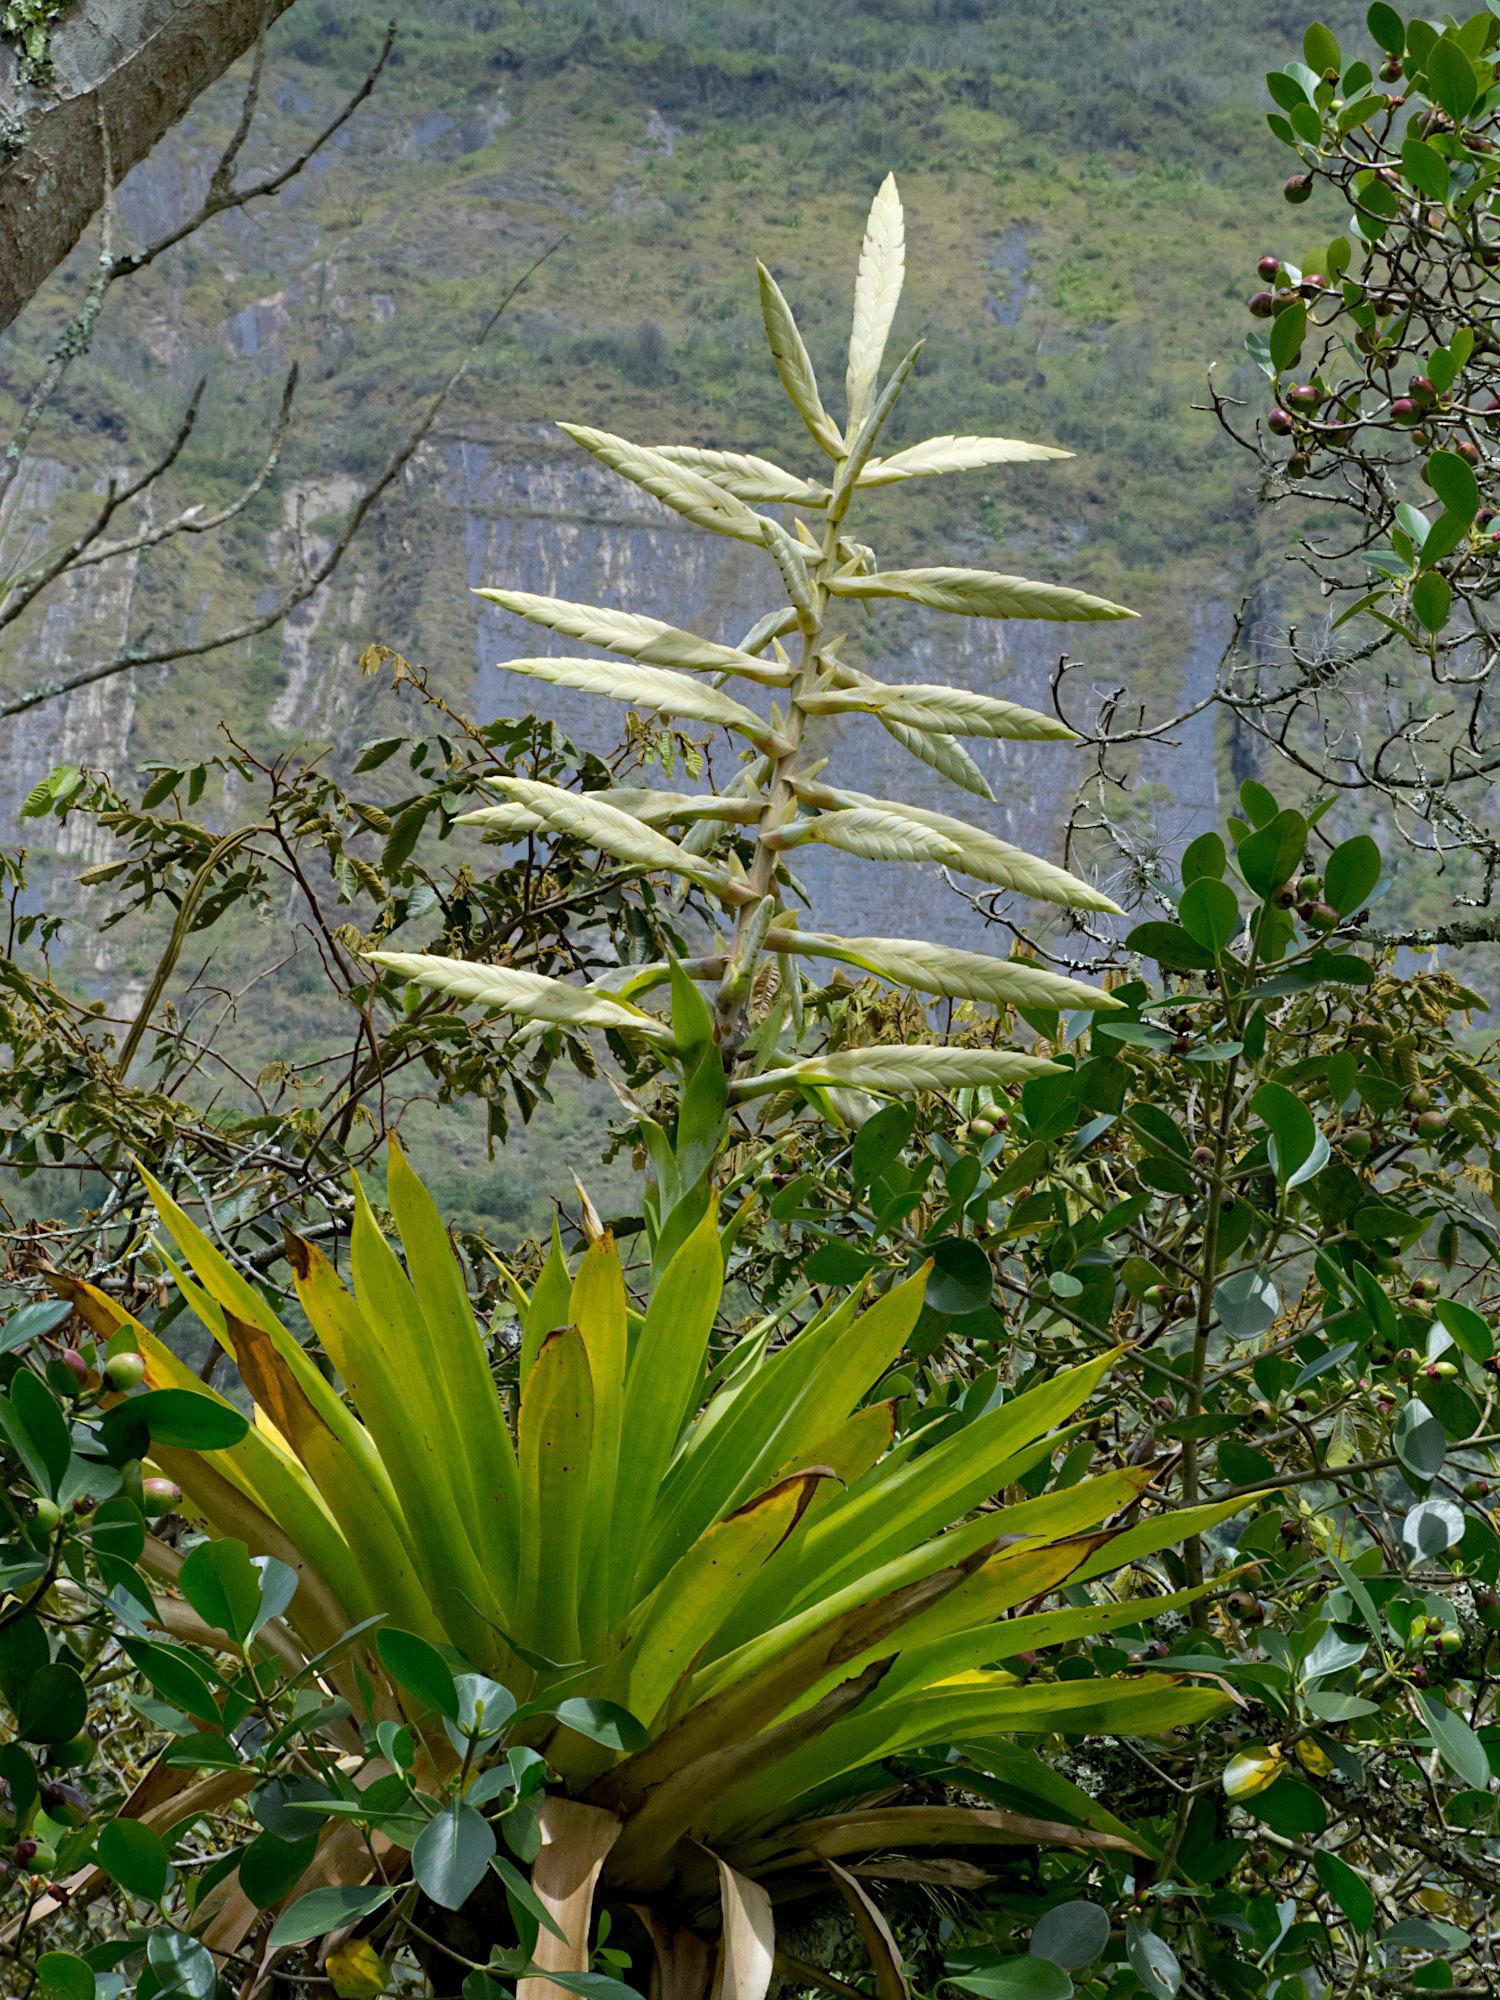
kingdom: Plantae
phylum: Tracheophyta
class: Liliopsida
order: Poales
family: Bromeliaceae
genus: Tillandsia
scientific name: Tillandsia fendleri
